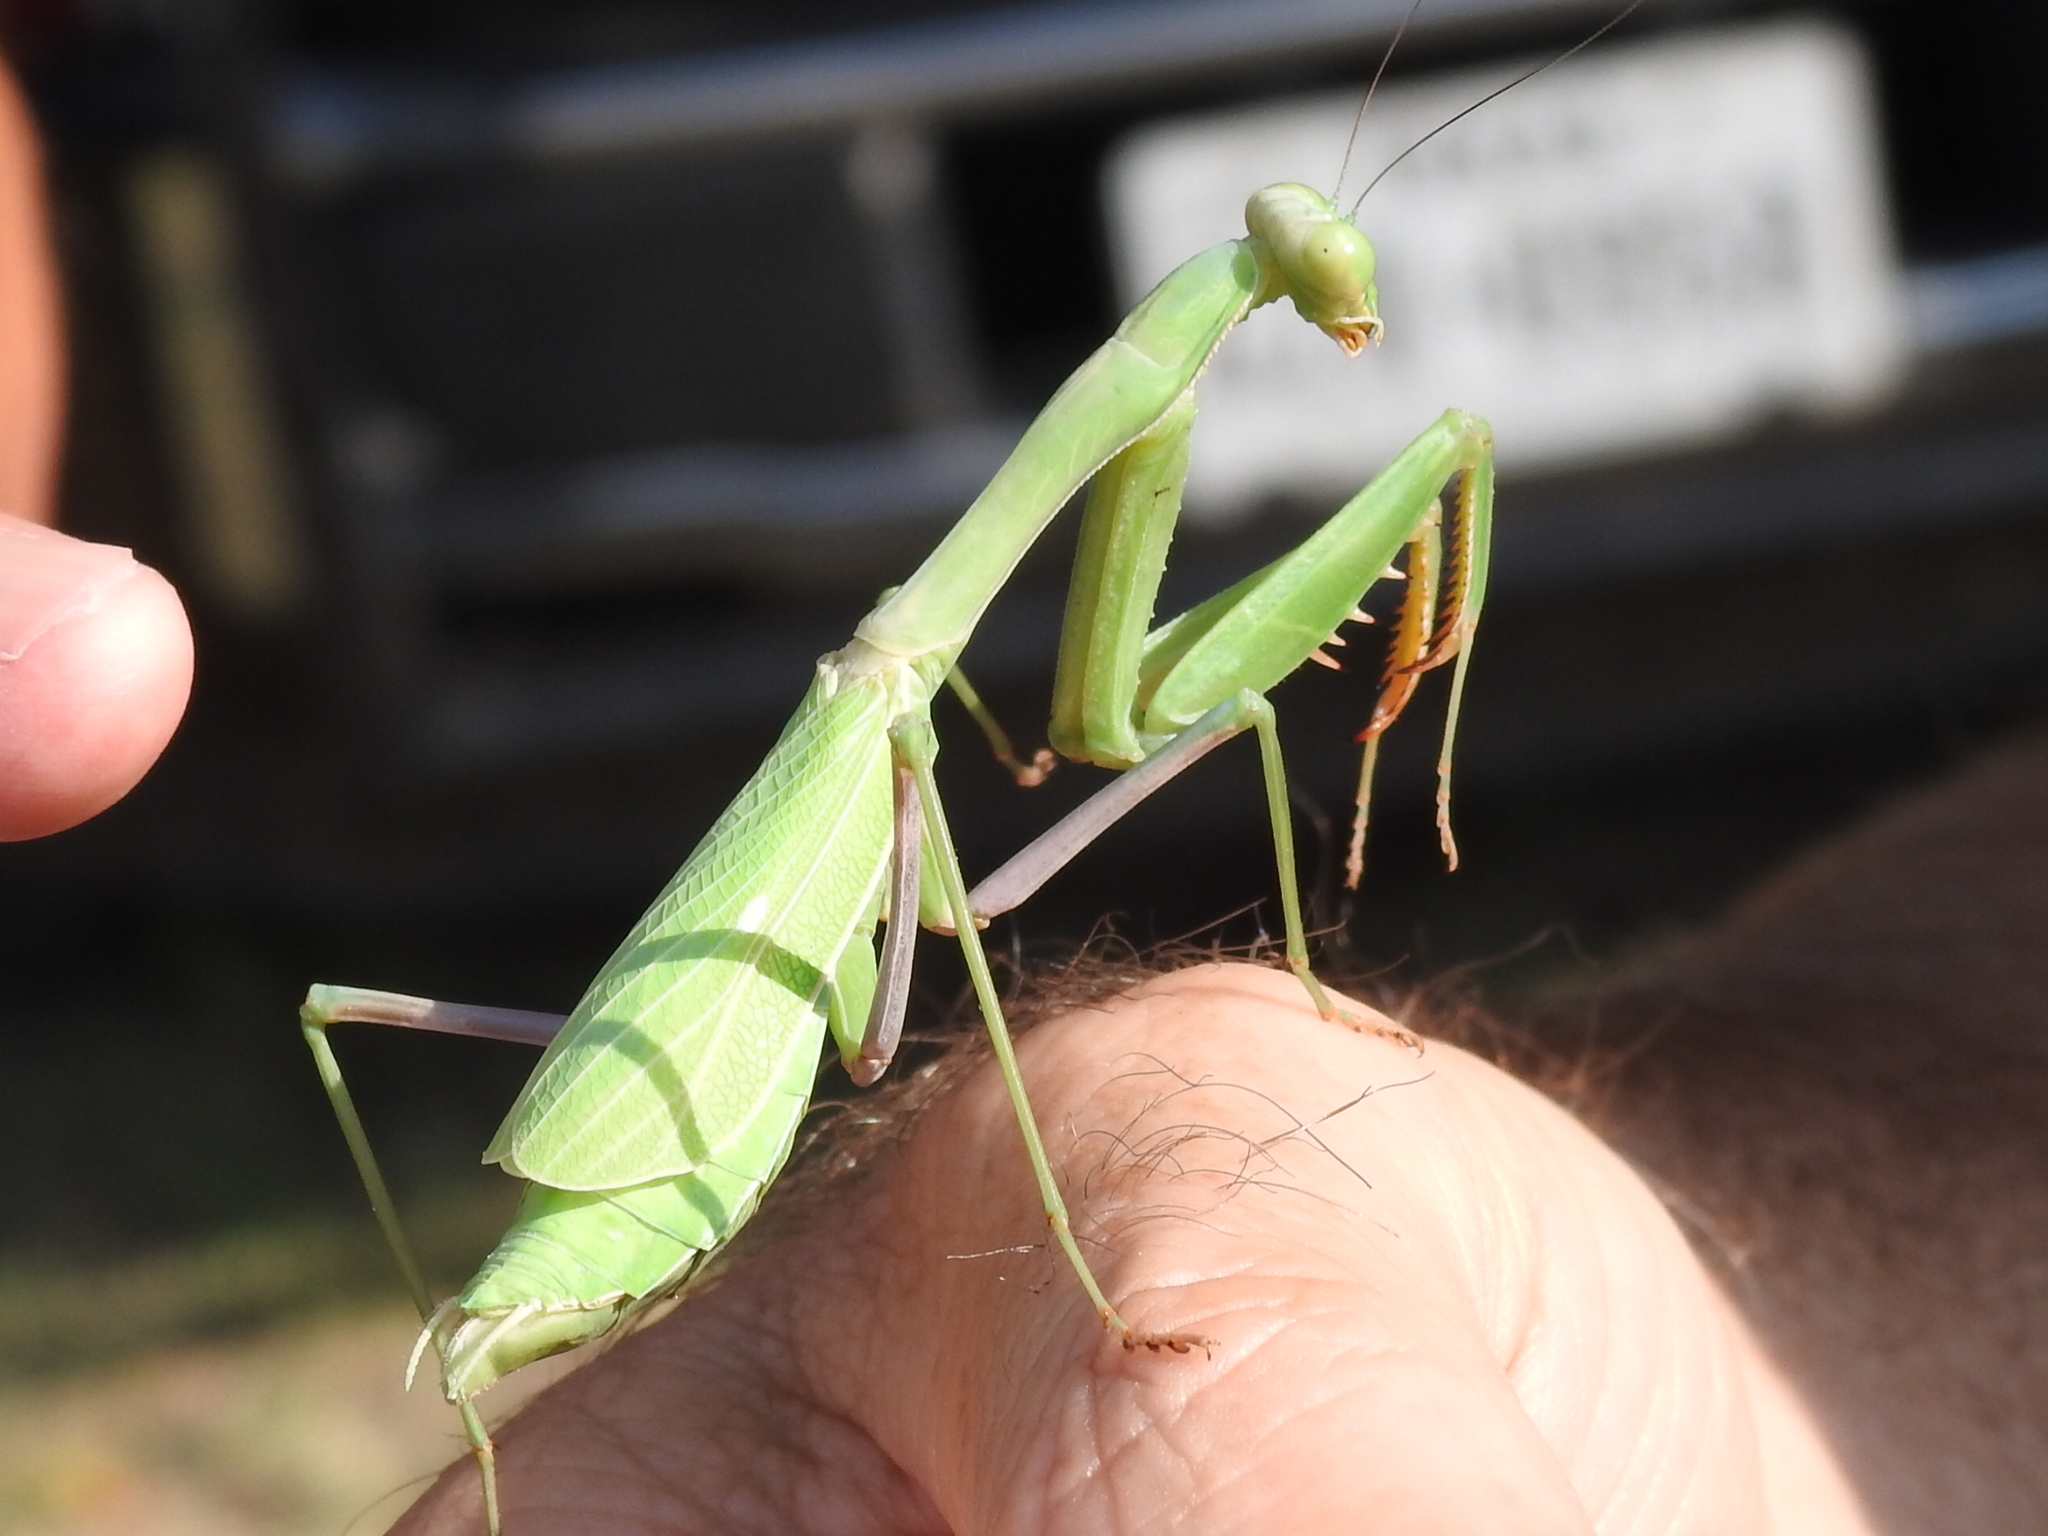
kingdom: Animalia
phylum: Arthropoda
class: Insecta
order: Mantodea
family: Mantidae
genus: Stagmomantis
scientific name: Stagmomantis limbata
